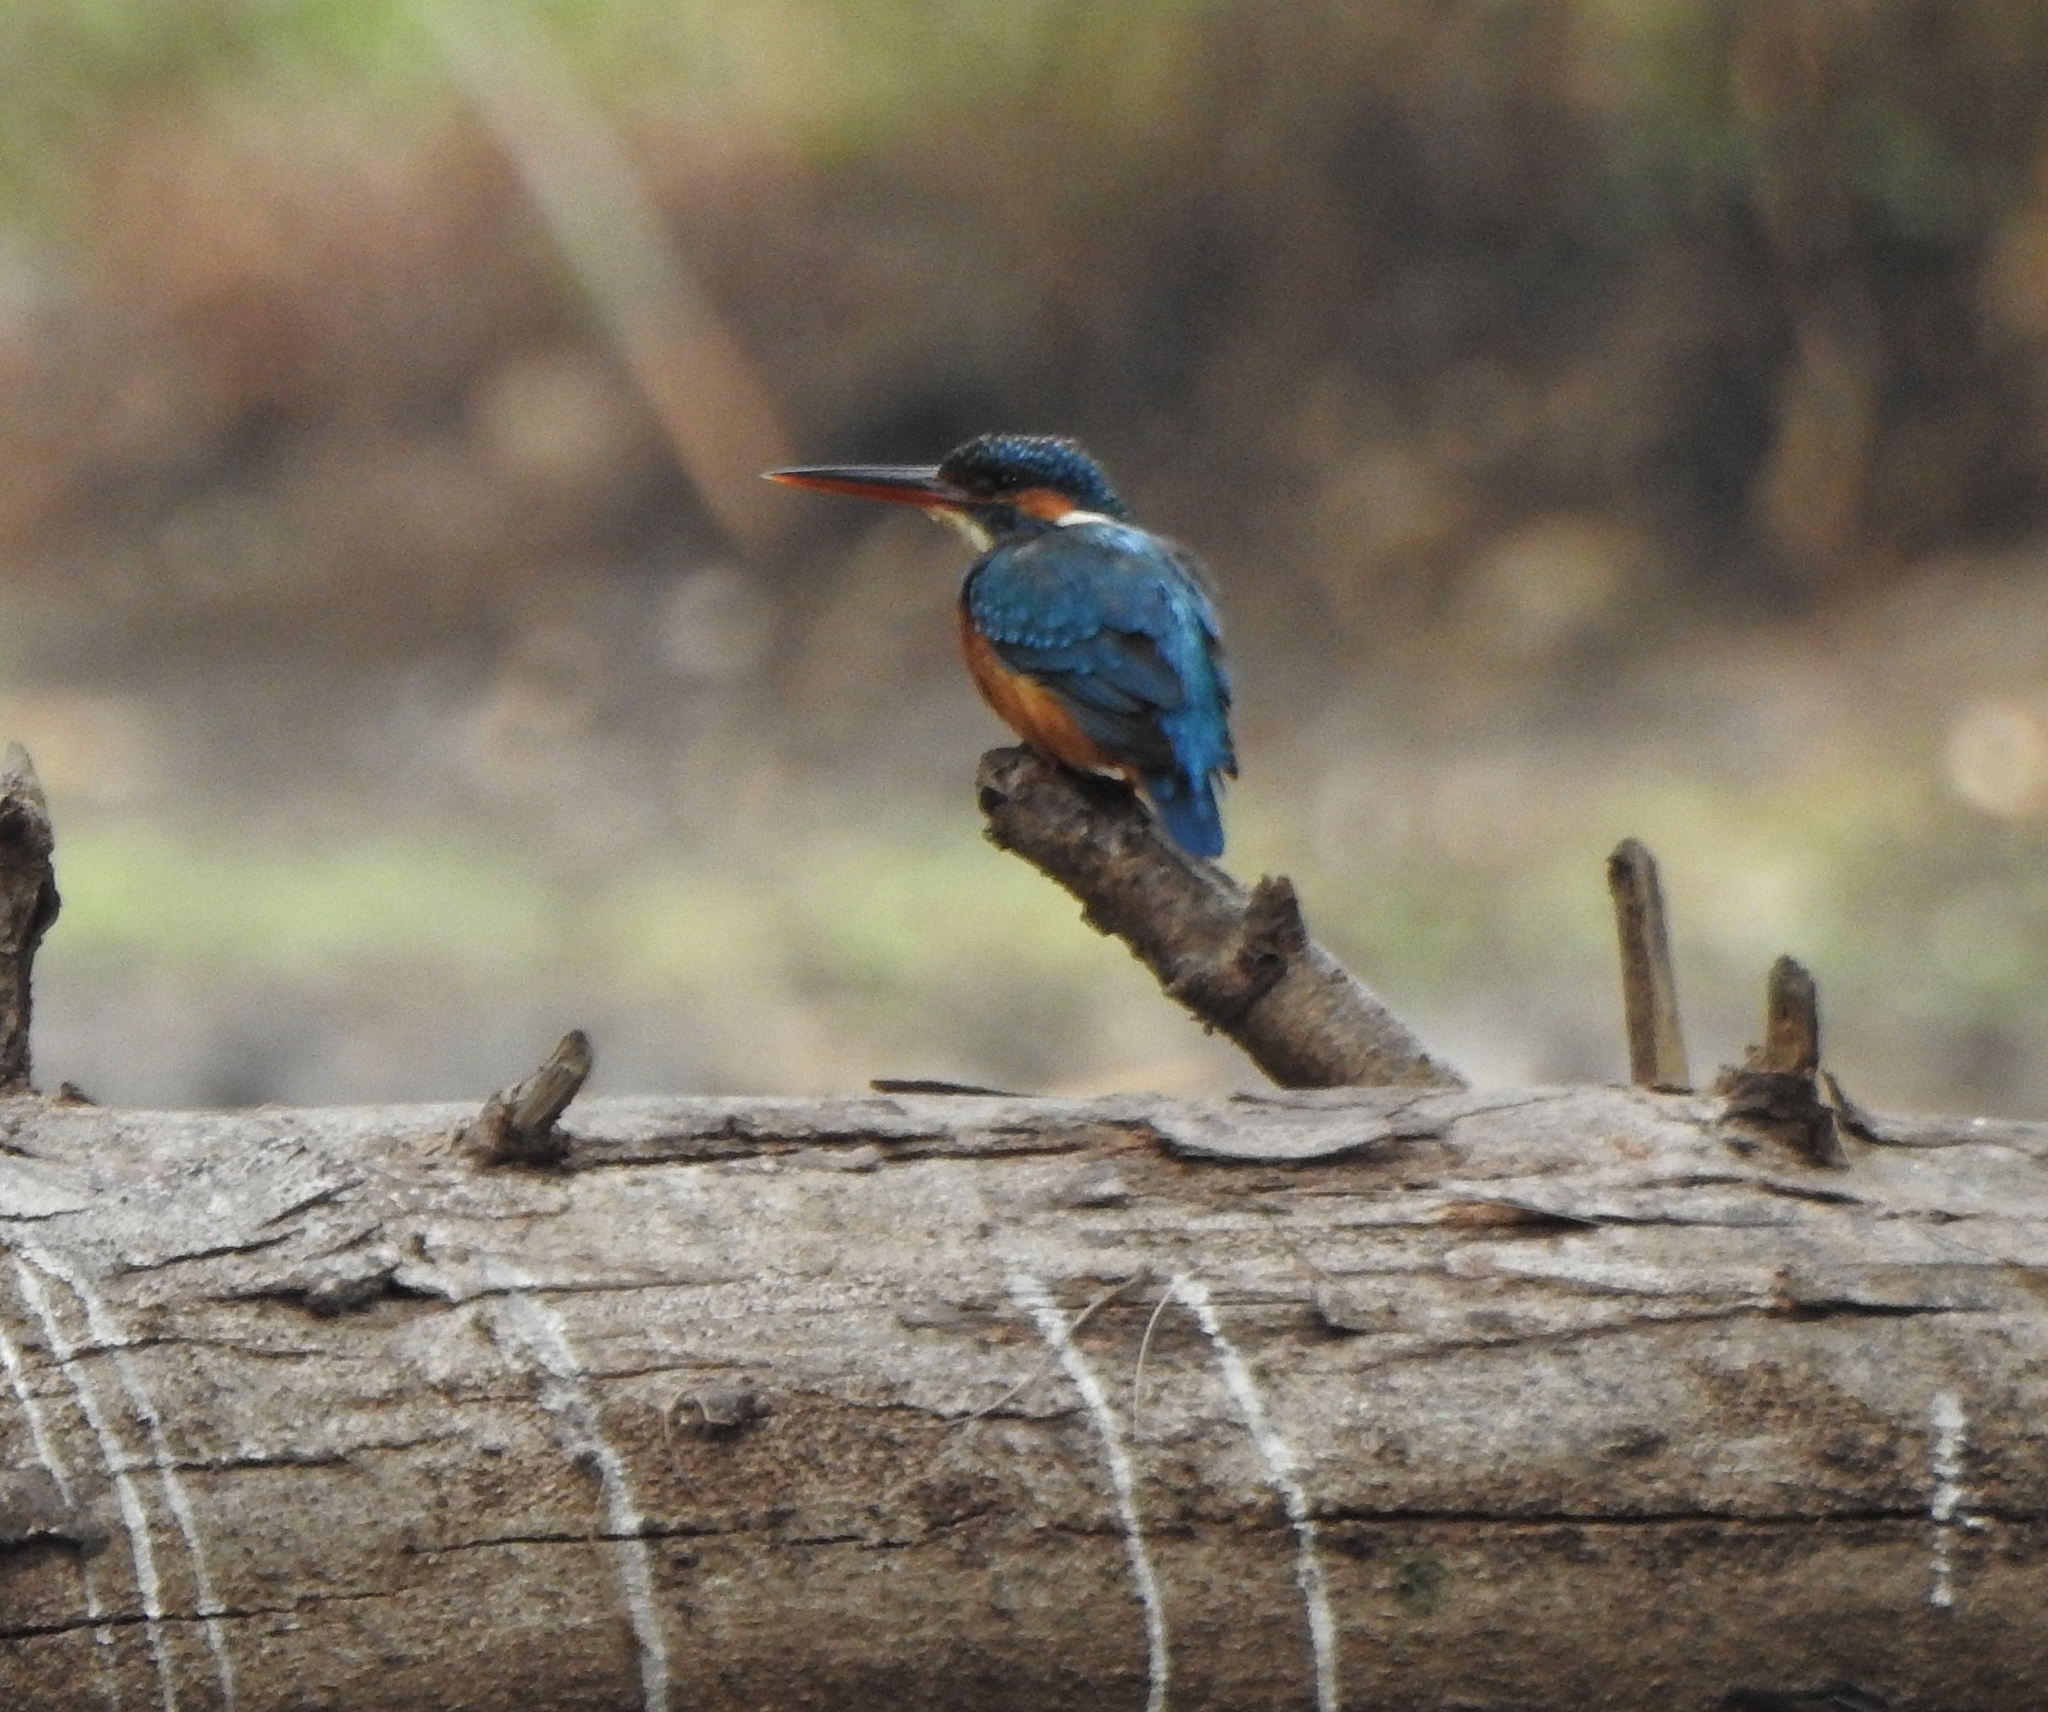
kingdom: Animalia
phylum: Chordata
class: Aves
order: Coraciiformes
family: Alcedinidae
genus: Alcedo
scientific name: Alcedo atthis
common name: Common kingfisher
